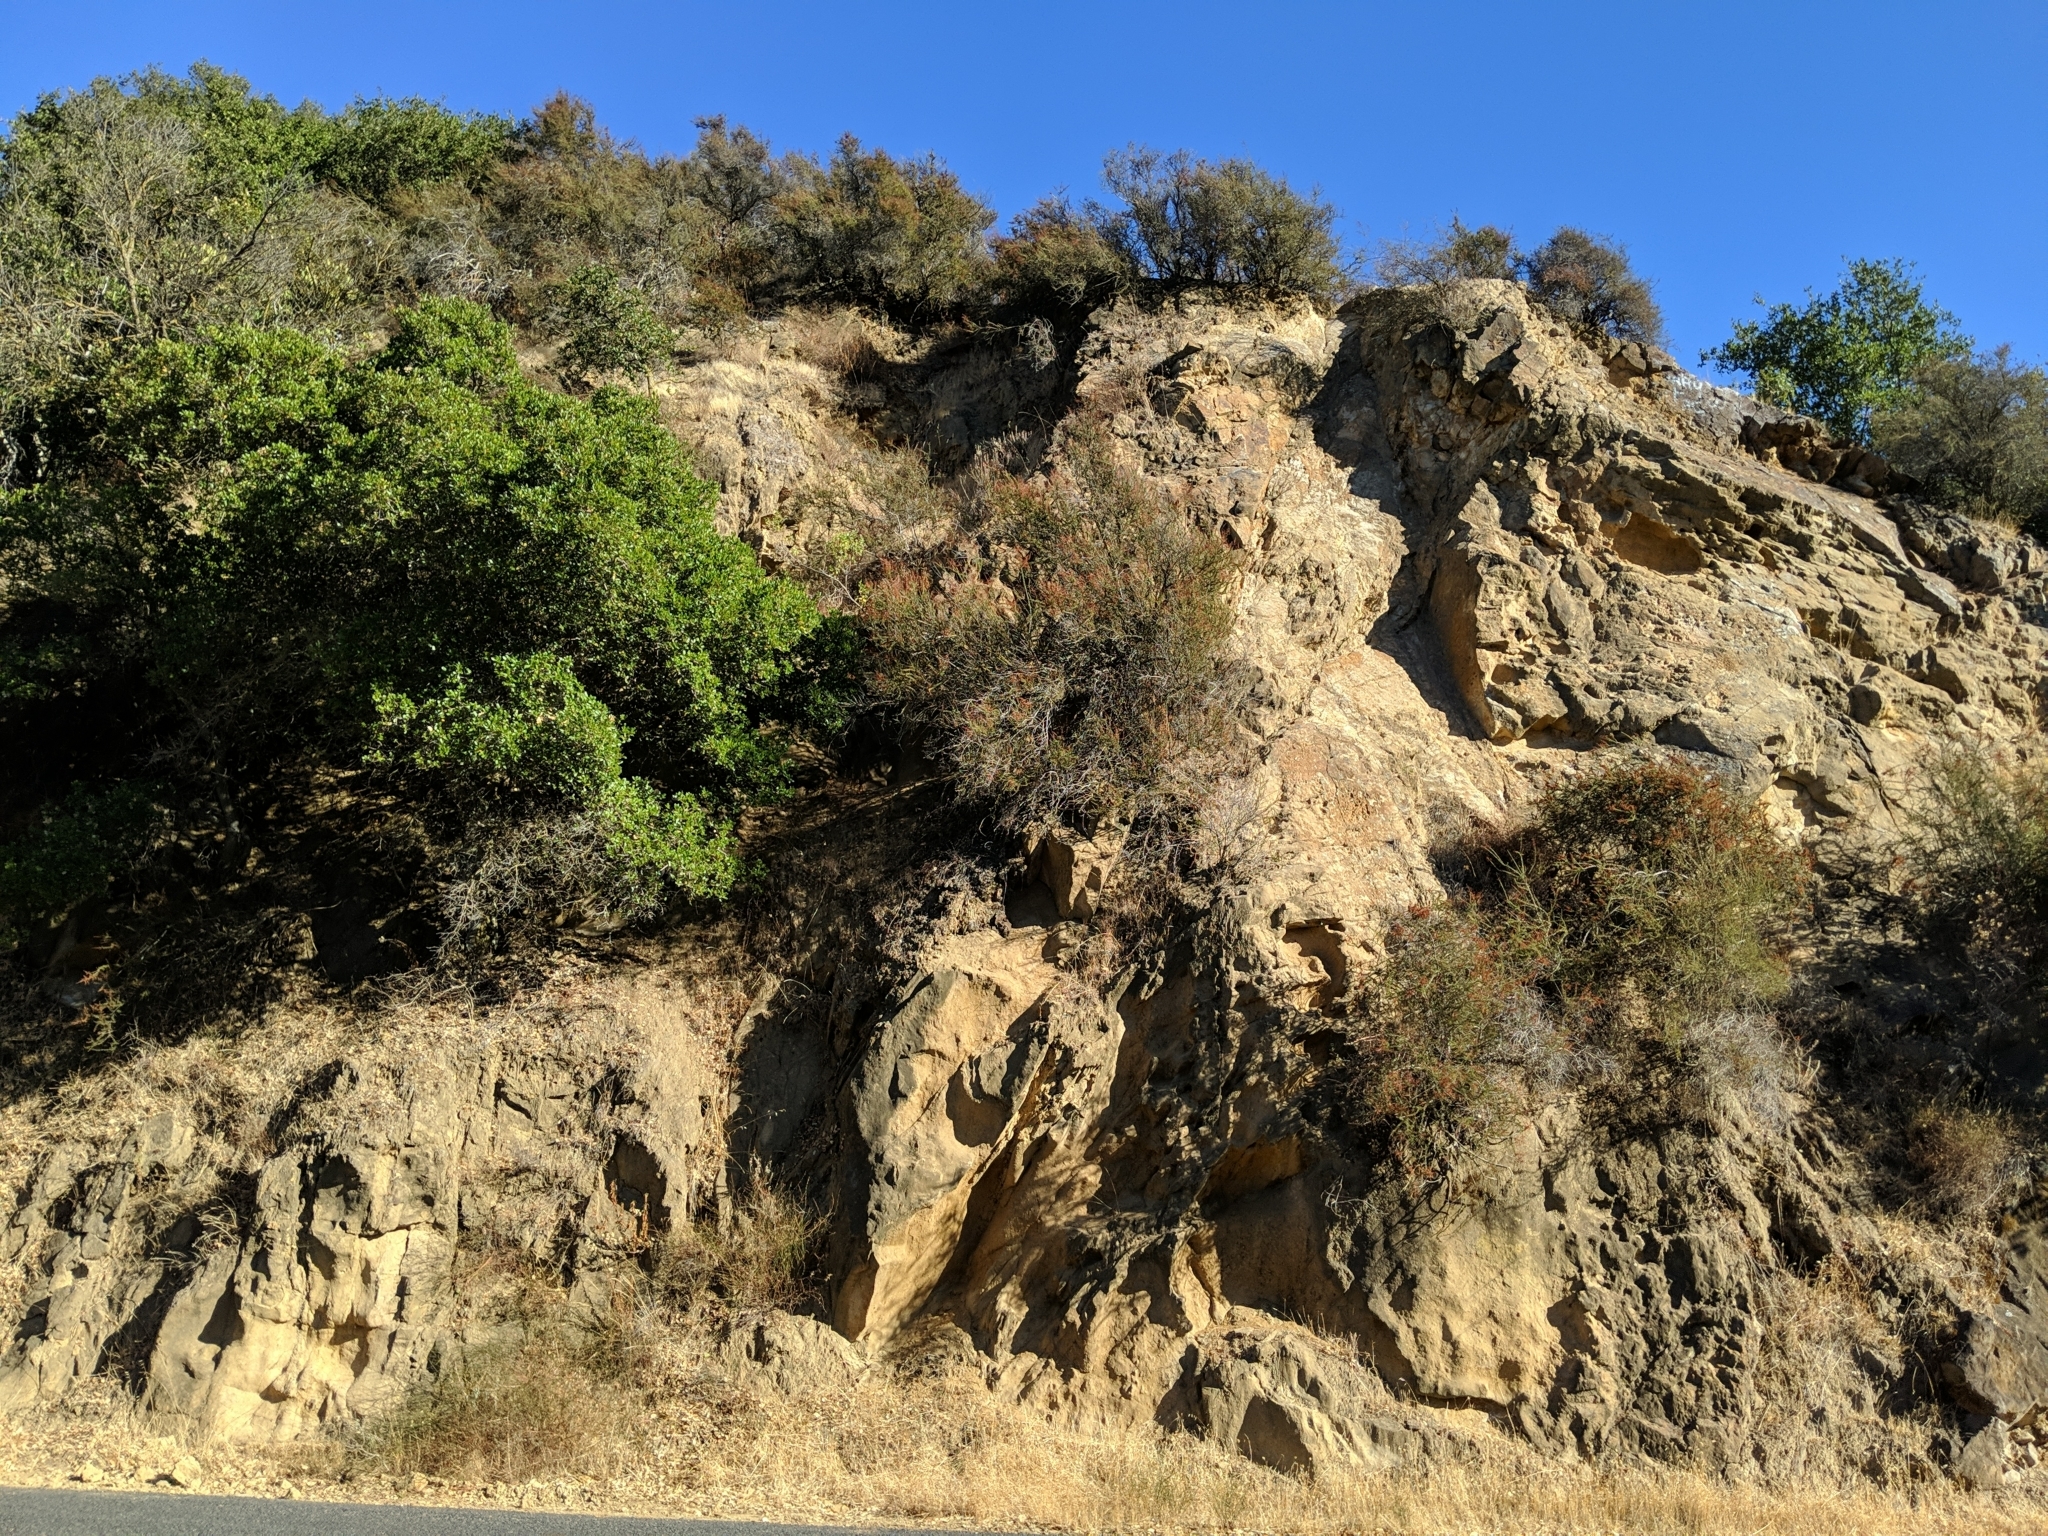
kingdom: Plantae
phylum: Tracheophyta
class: Magnoliopsida
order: Rosales
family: Rosaceae
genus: Adenostoma
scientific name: Adenostoma fasciculatum
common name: Chamise
